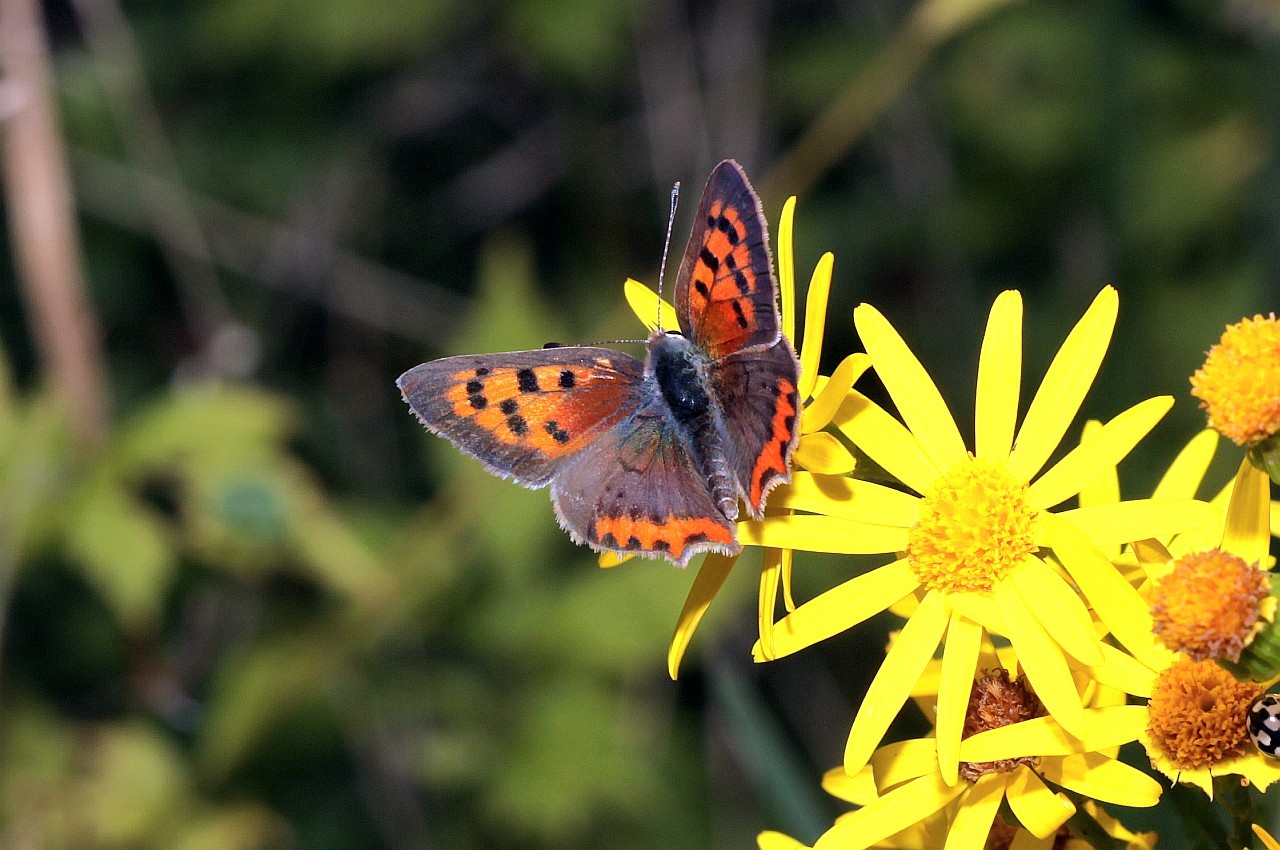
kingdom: Animalia
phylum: Arthropoda
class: Insecta
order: Lepidoptera
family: Lycaenidae
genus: Lycaena
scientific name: Lycaena phlaeas
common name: Small copper
